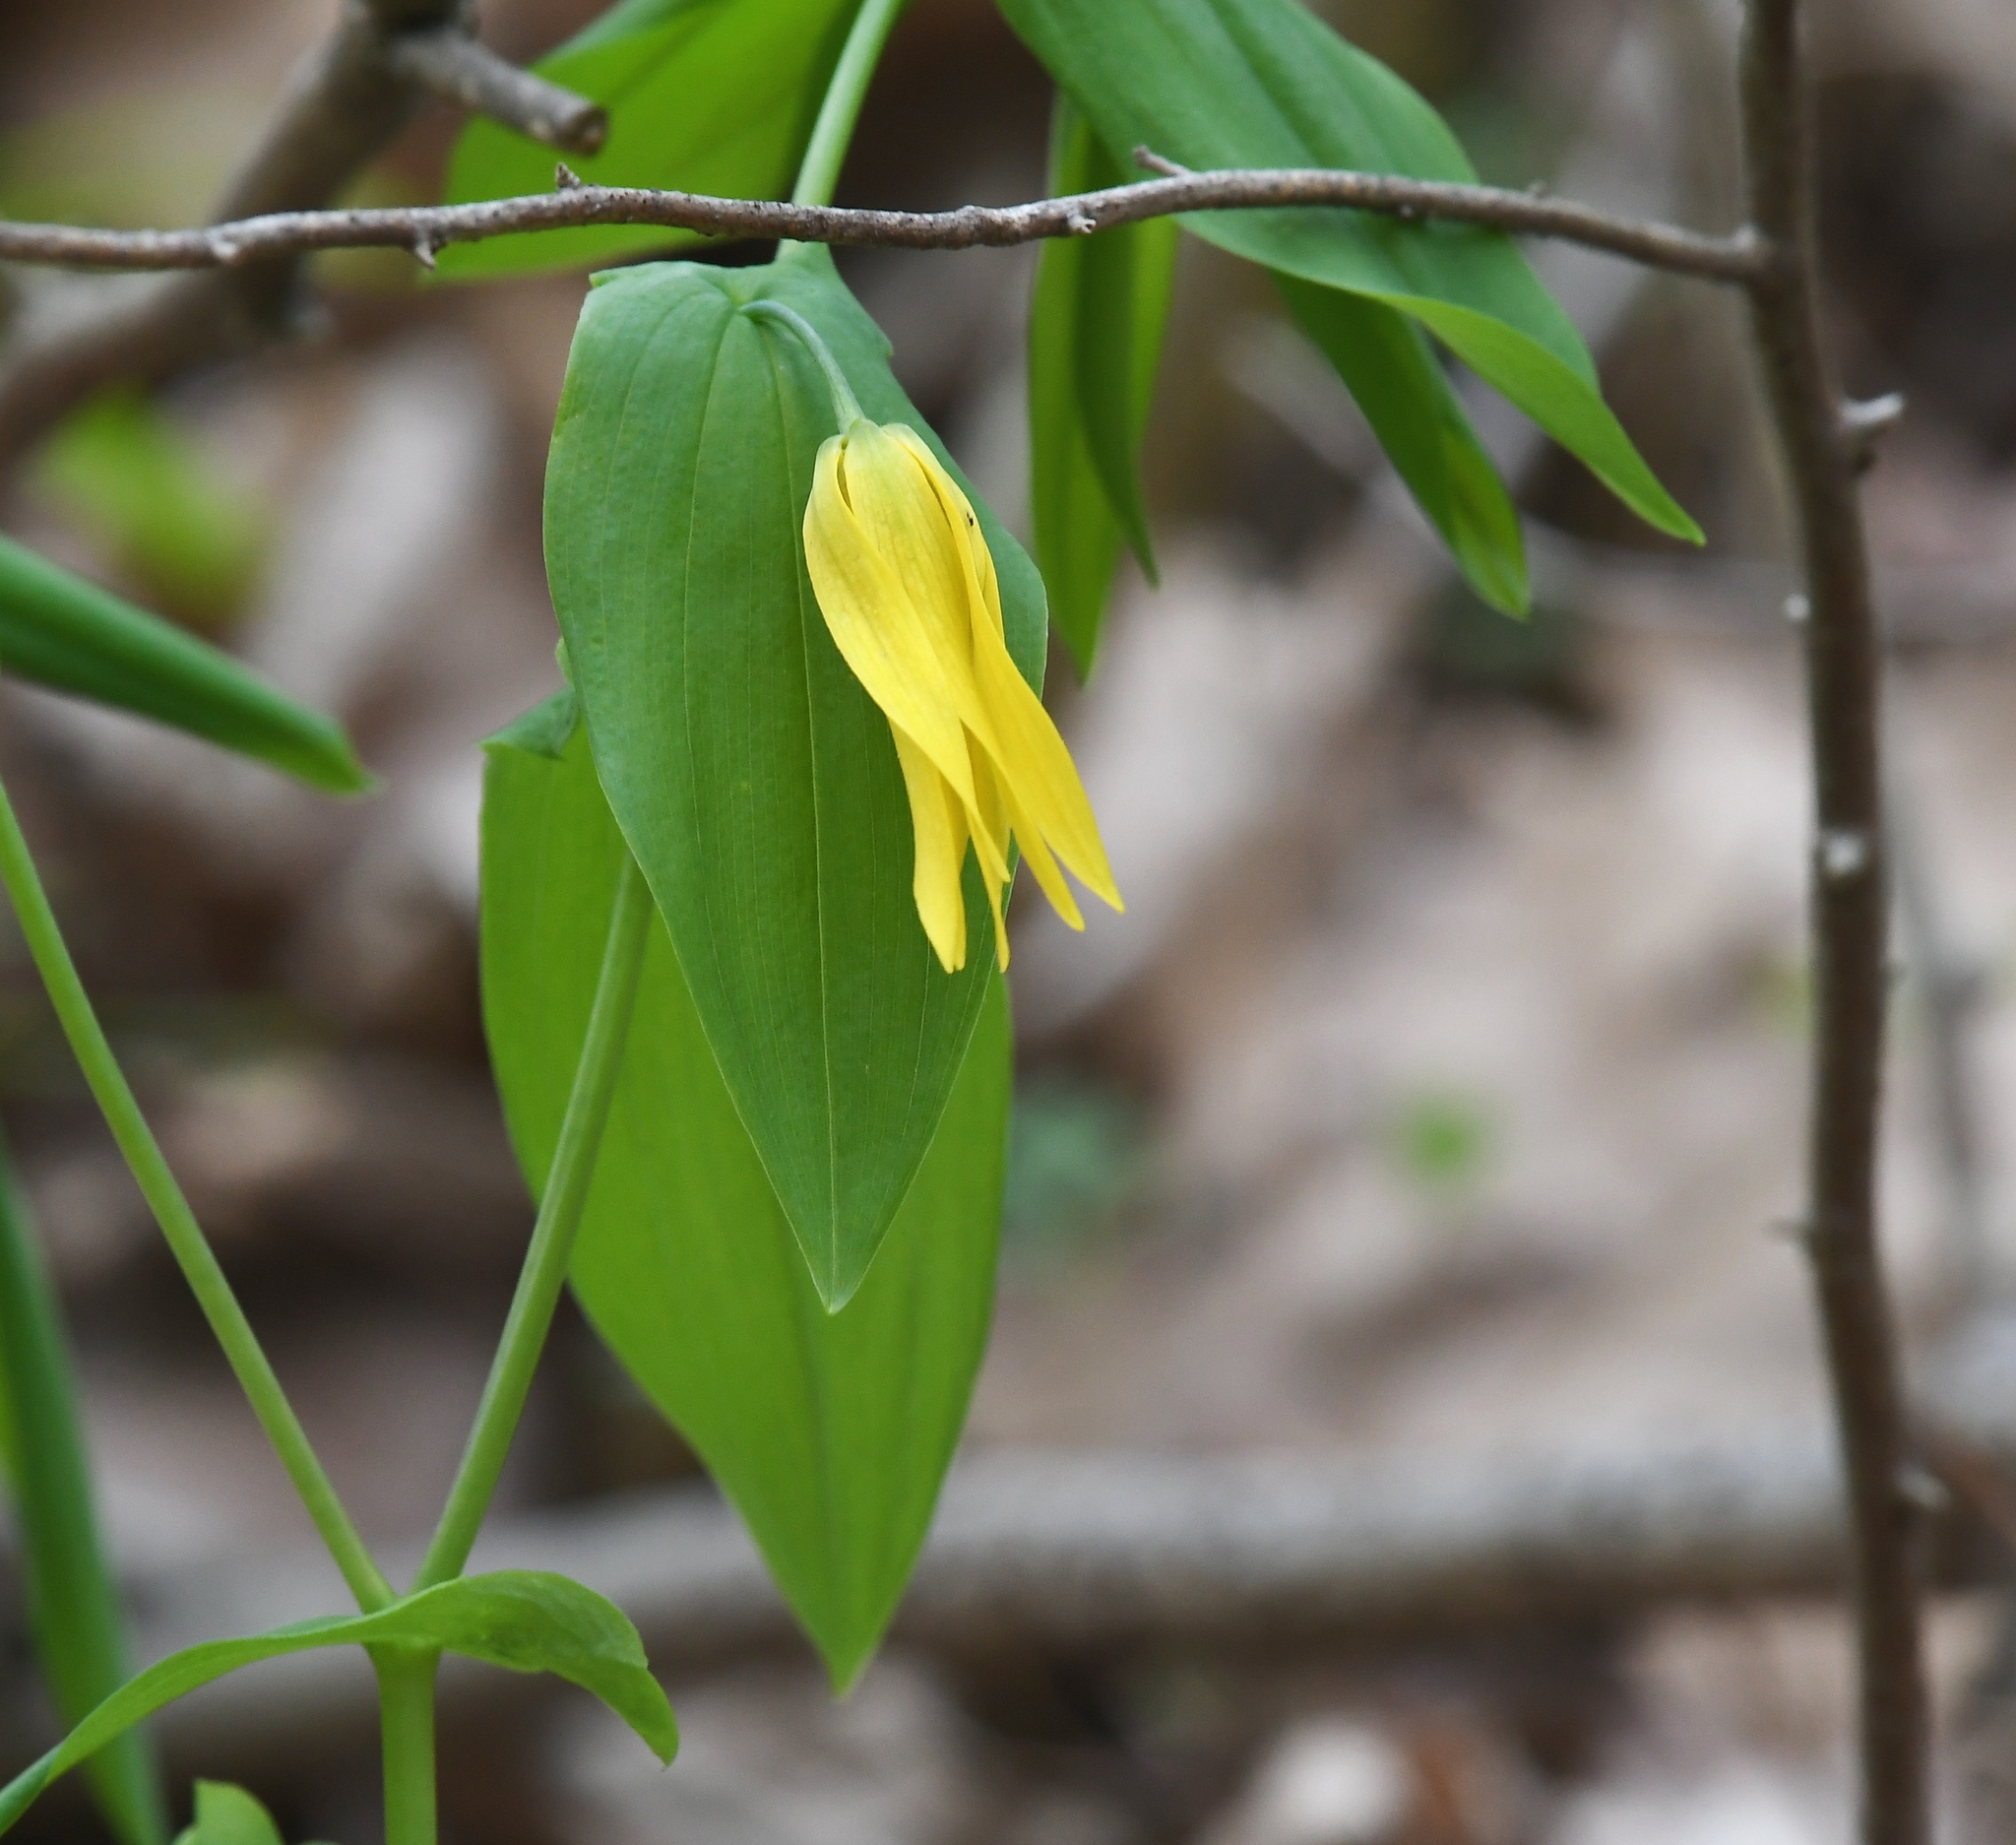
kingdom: Plantae
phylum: Tracheophyta
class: Liliopsida
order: Liliales
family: Colchicaceae
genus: Uvularia
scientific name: Uvularia grandiflora
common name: Bellwort
